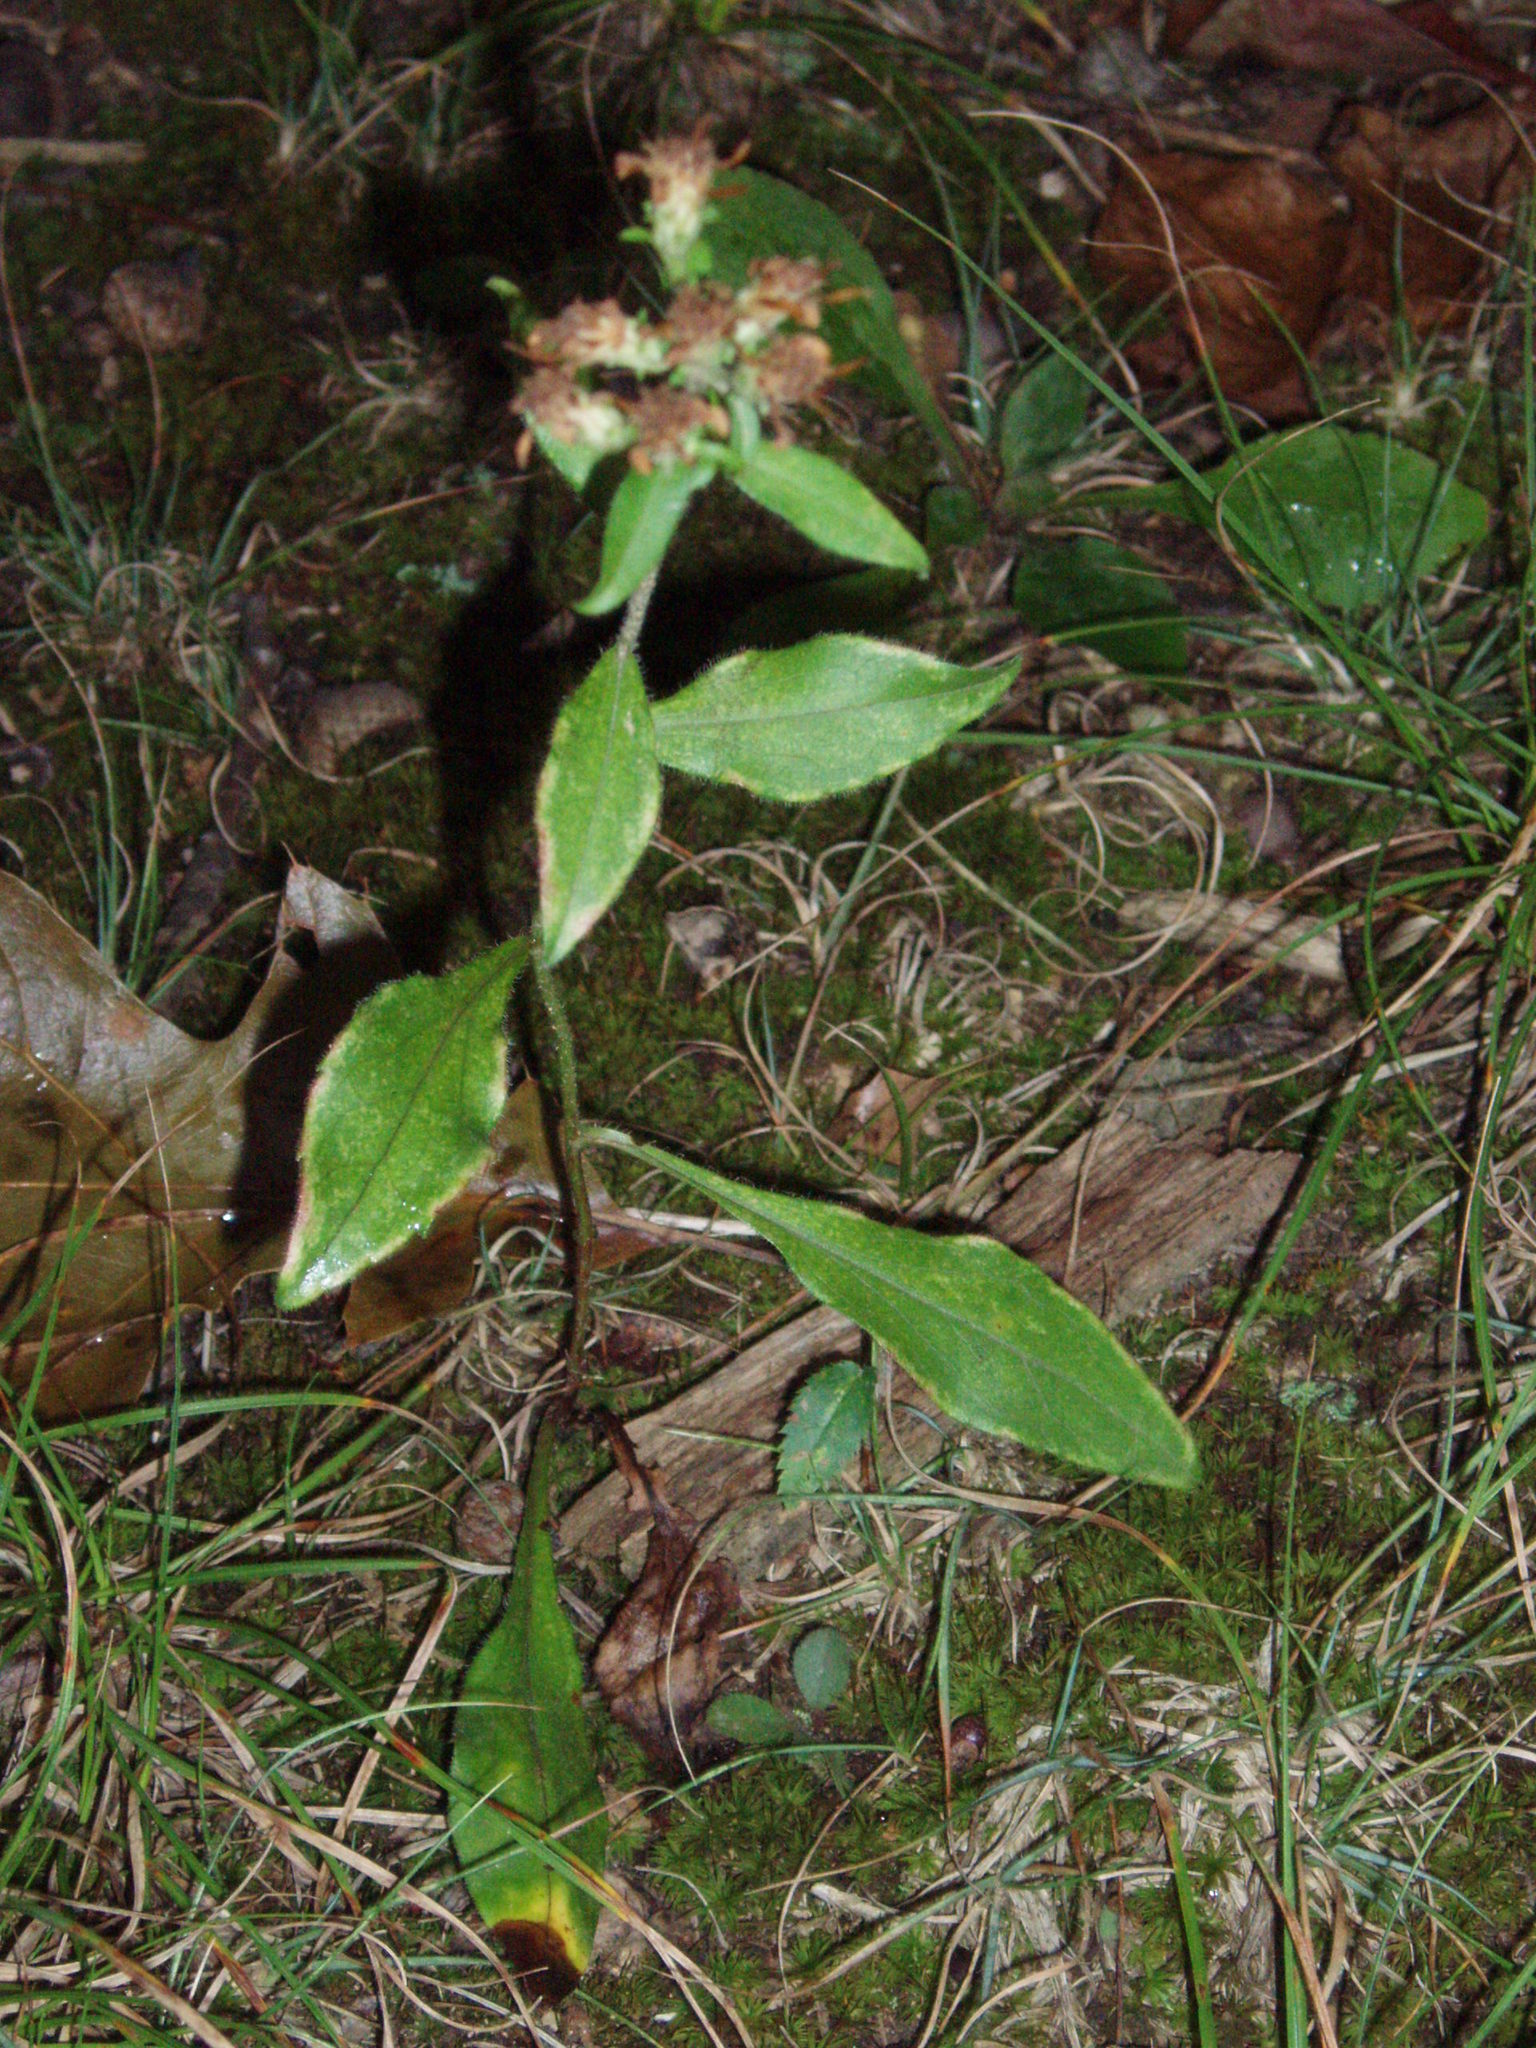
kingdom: Plantae
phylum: Tracheophyta
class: Magnoliopsida
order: Asterales
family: Asteraceae
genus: Sericocarpus
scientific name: Sericocarpus asteroides
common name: Toothed white-top aster
